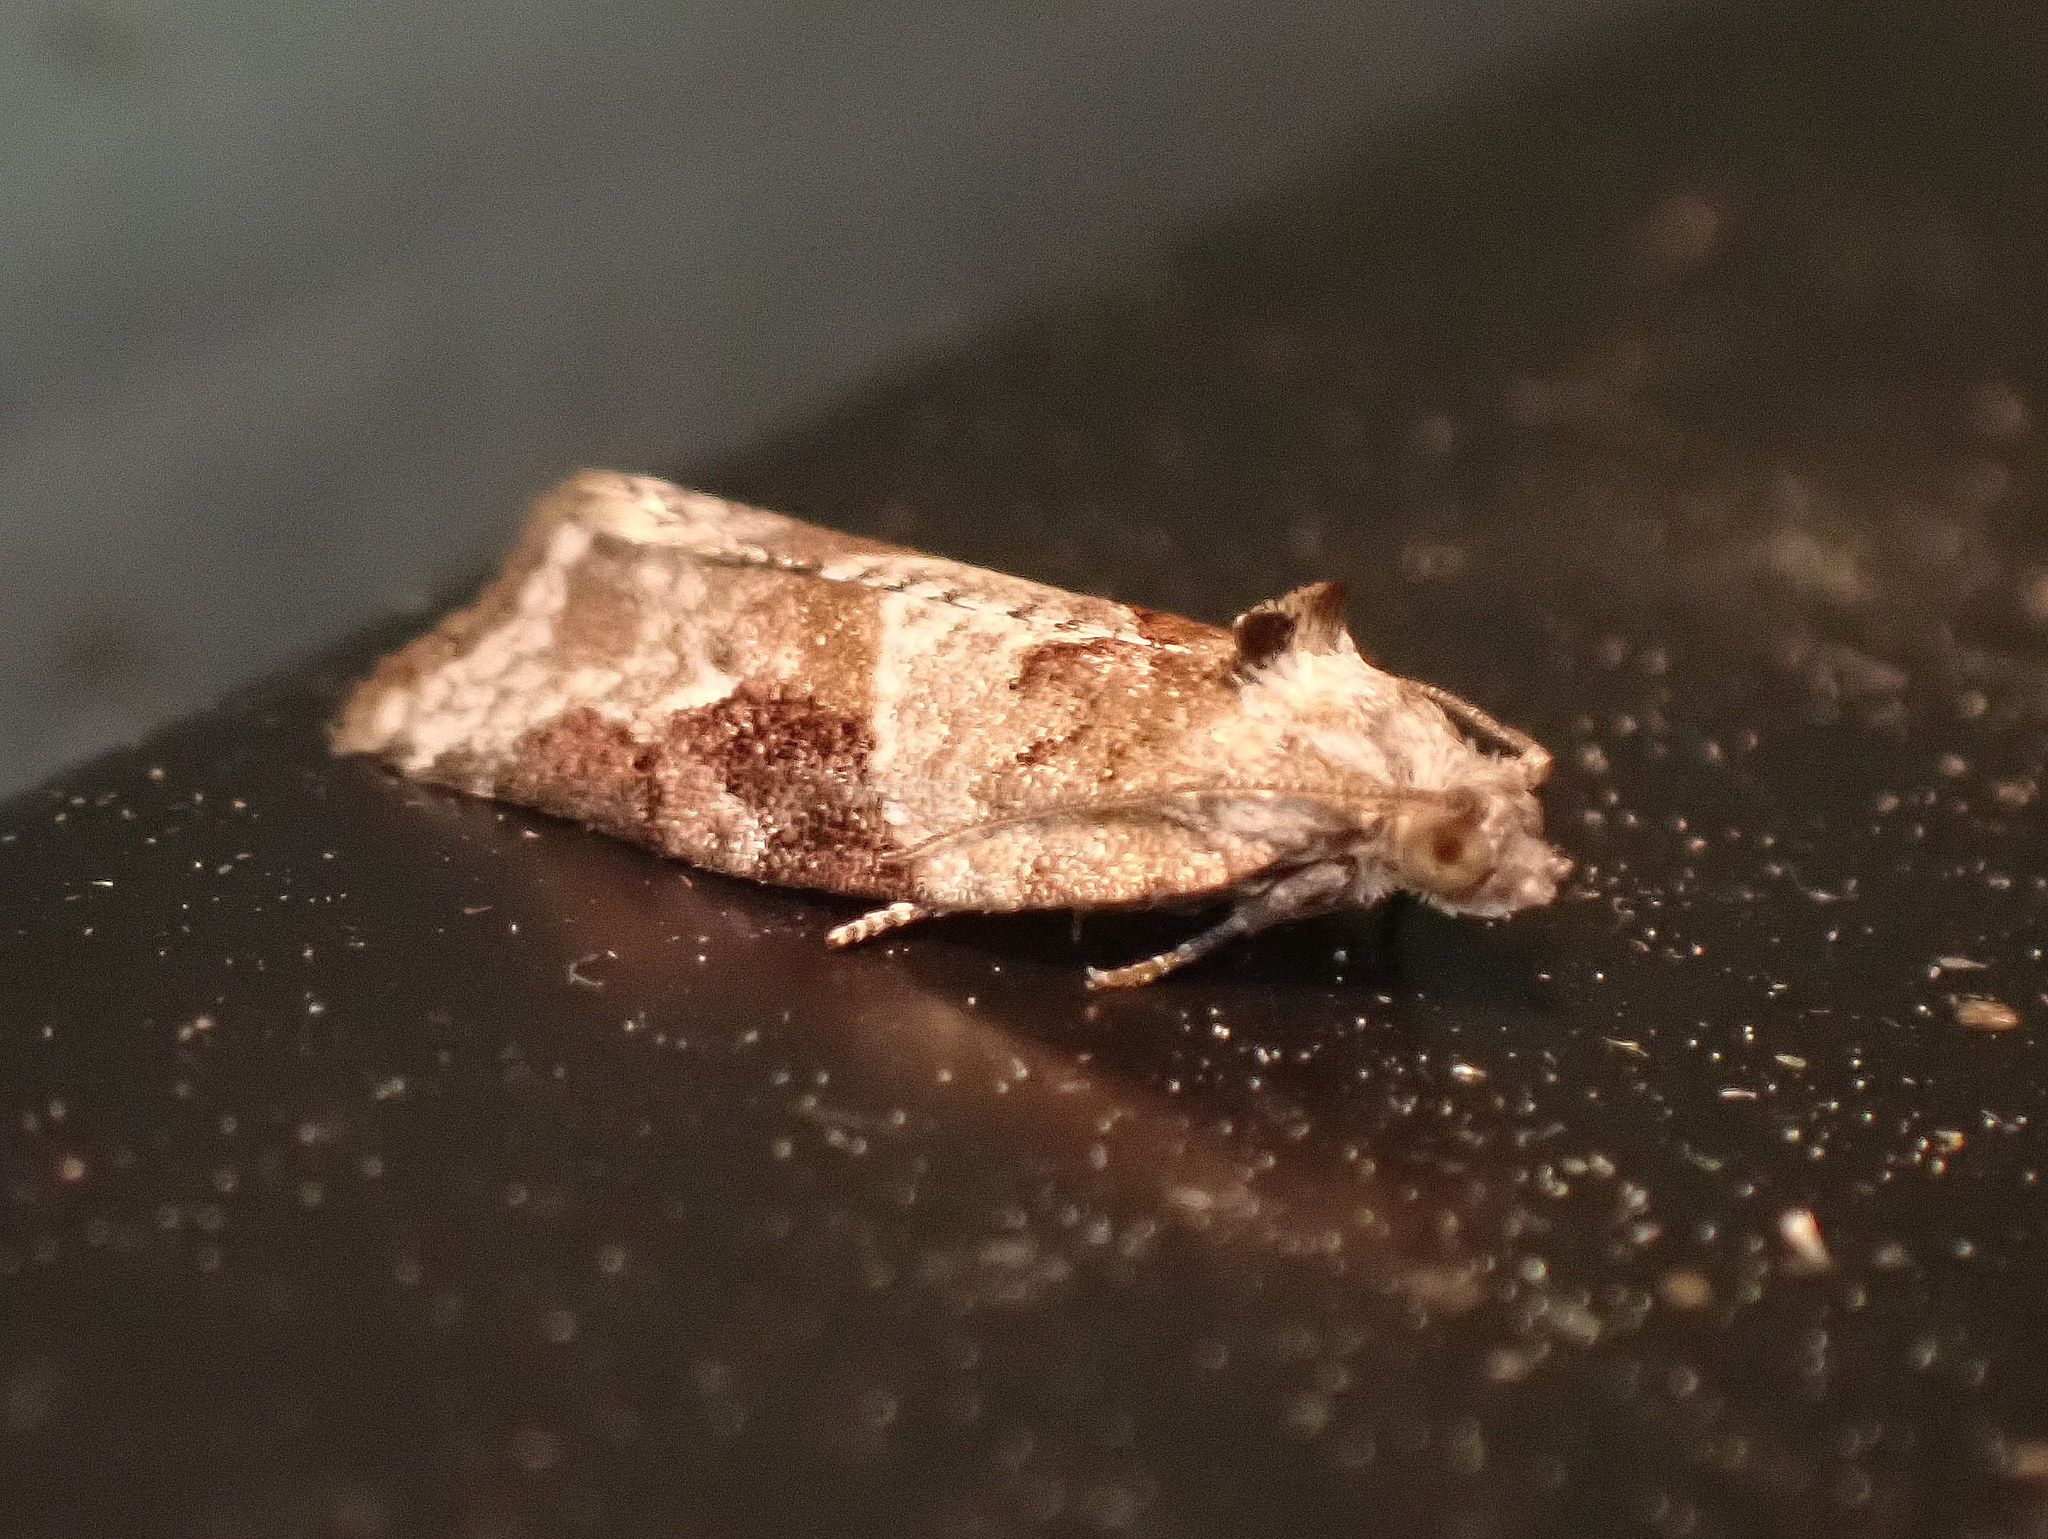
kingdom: Animalia
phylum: Arthropoda
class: Insecta
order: Lepidoptera
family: Tortricidae
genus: Argyrotaenia
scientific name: Argyrotaenia mariana
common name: Gray-banded leafroller moth
